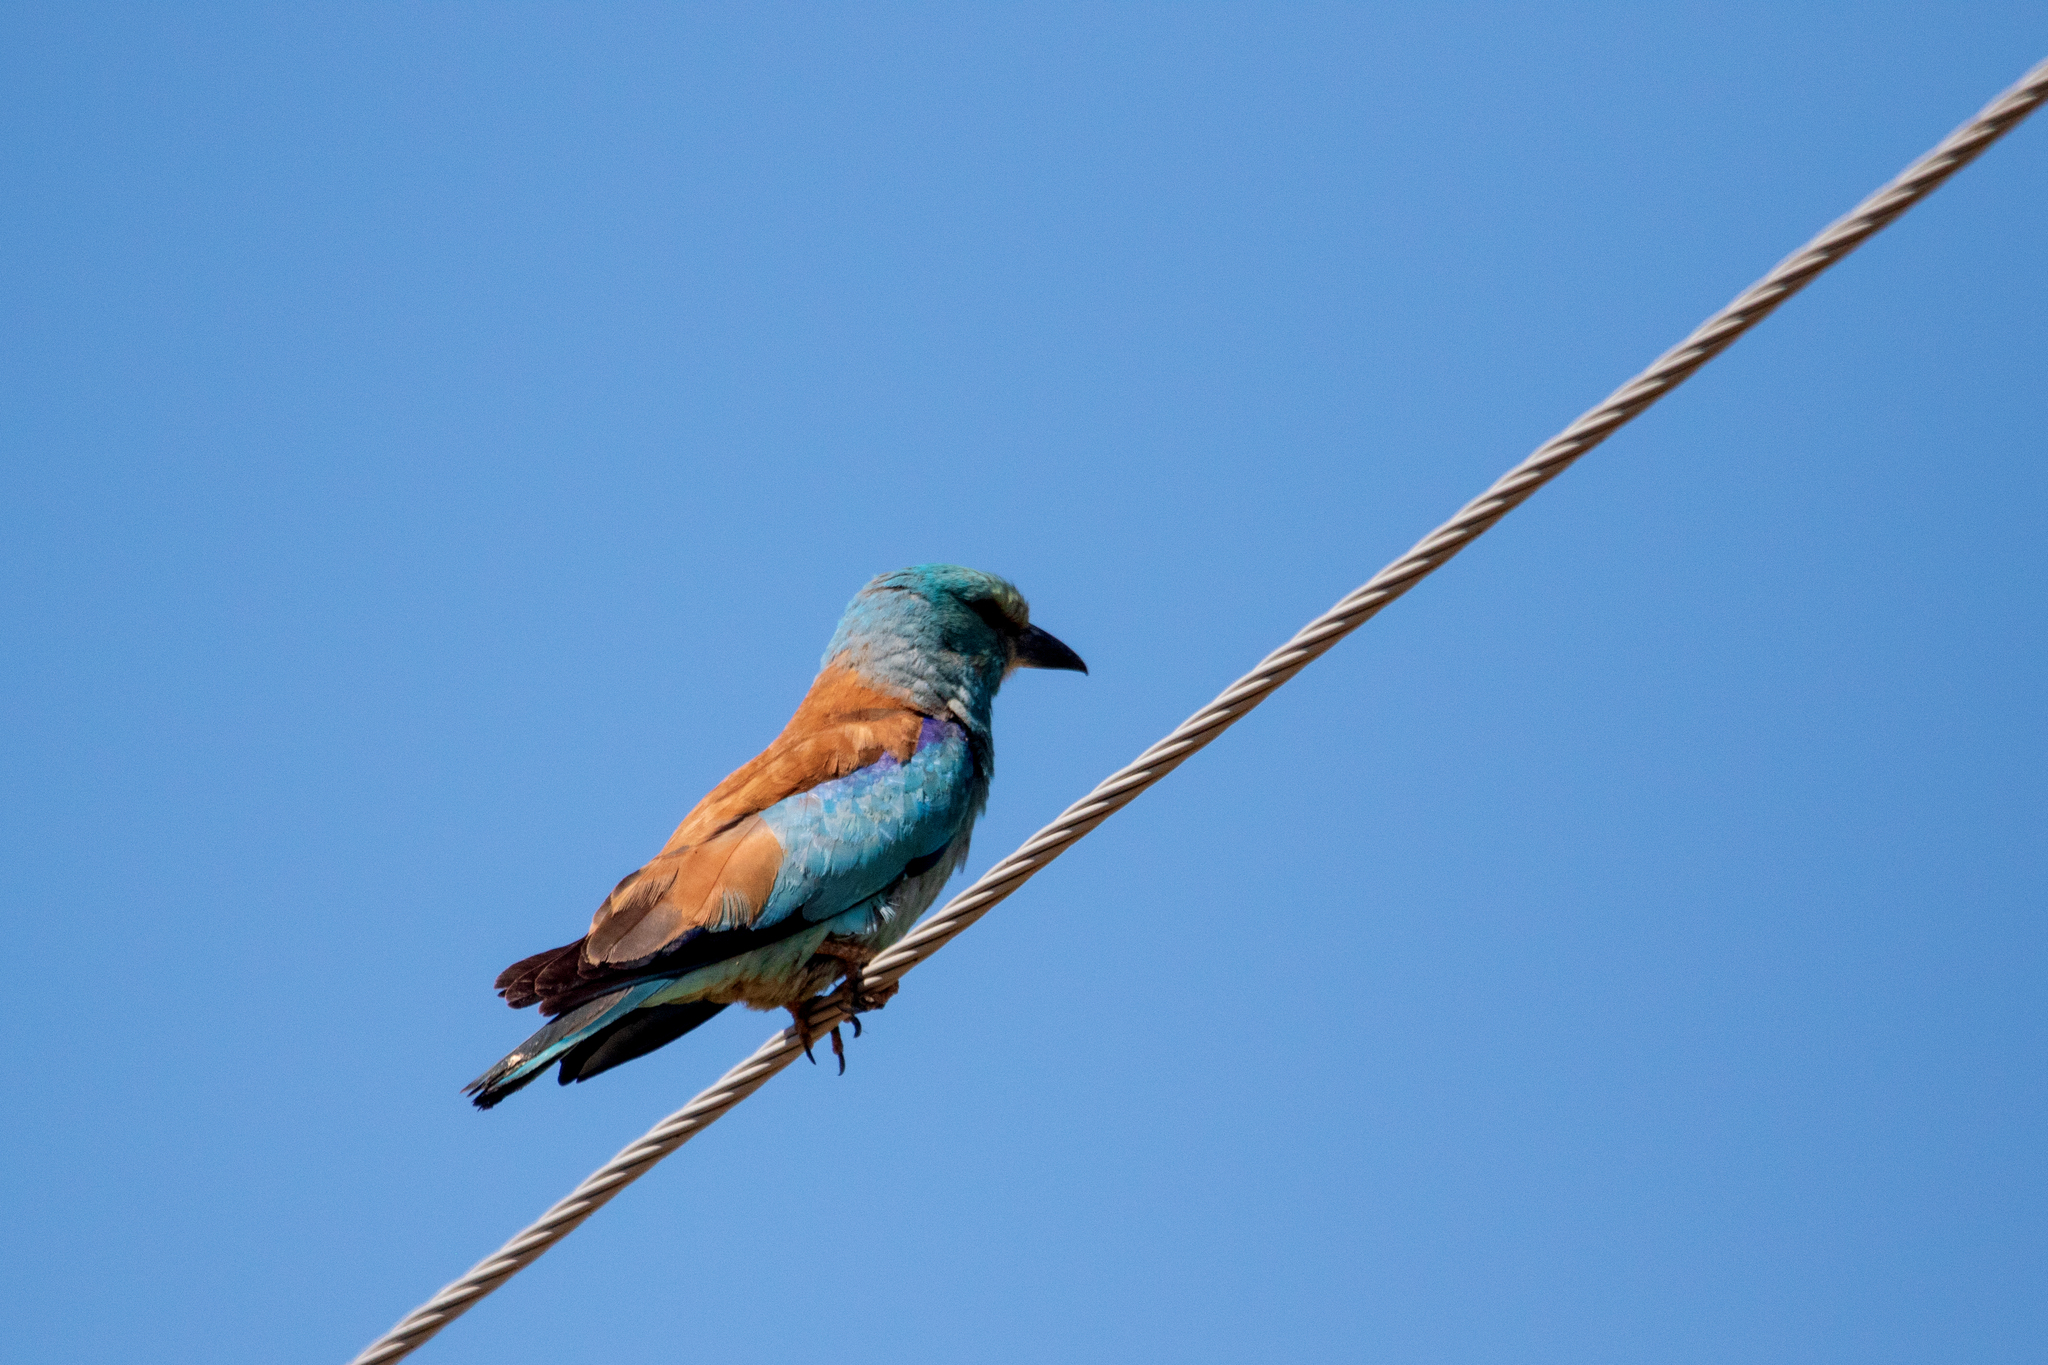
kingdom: Animalia
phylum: Chordata
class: Aves
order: Coraciiformes
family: Coraciidae
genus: Coracias
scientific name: Coracias garrulus
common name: European roller
